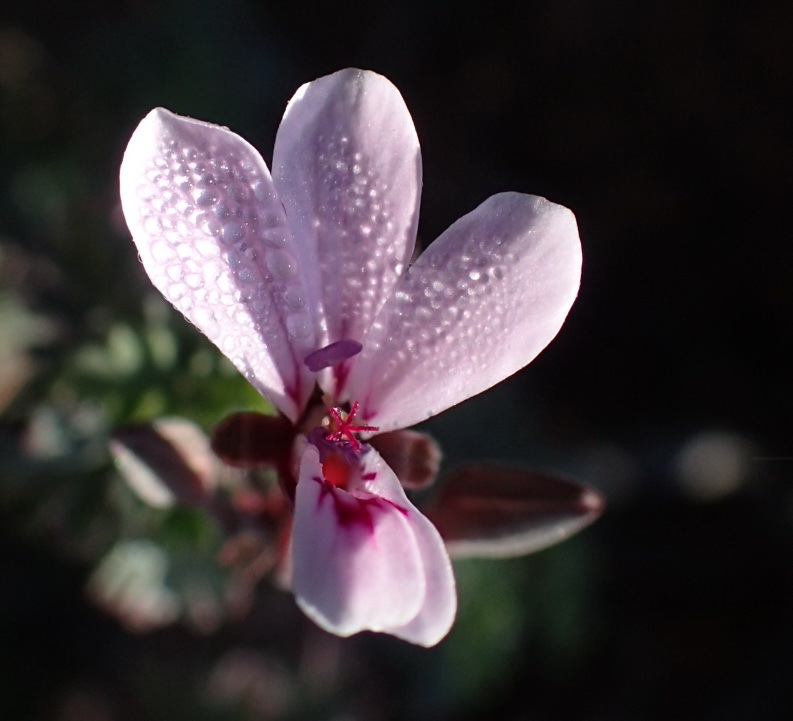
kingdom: Plantae
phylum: Tracheophyta
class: Magnoliopsida
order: Geraniales
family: Geraniaceae
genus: Pelargonium
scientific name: Pelargonium exstipulatum
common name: Soft-leaf trifid pelargonium
